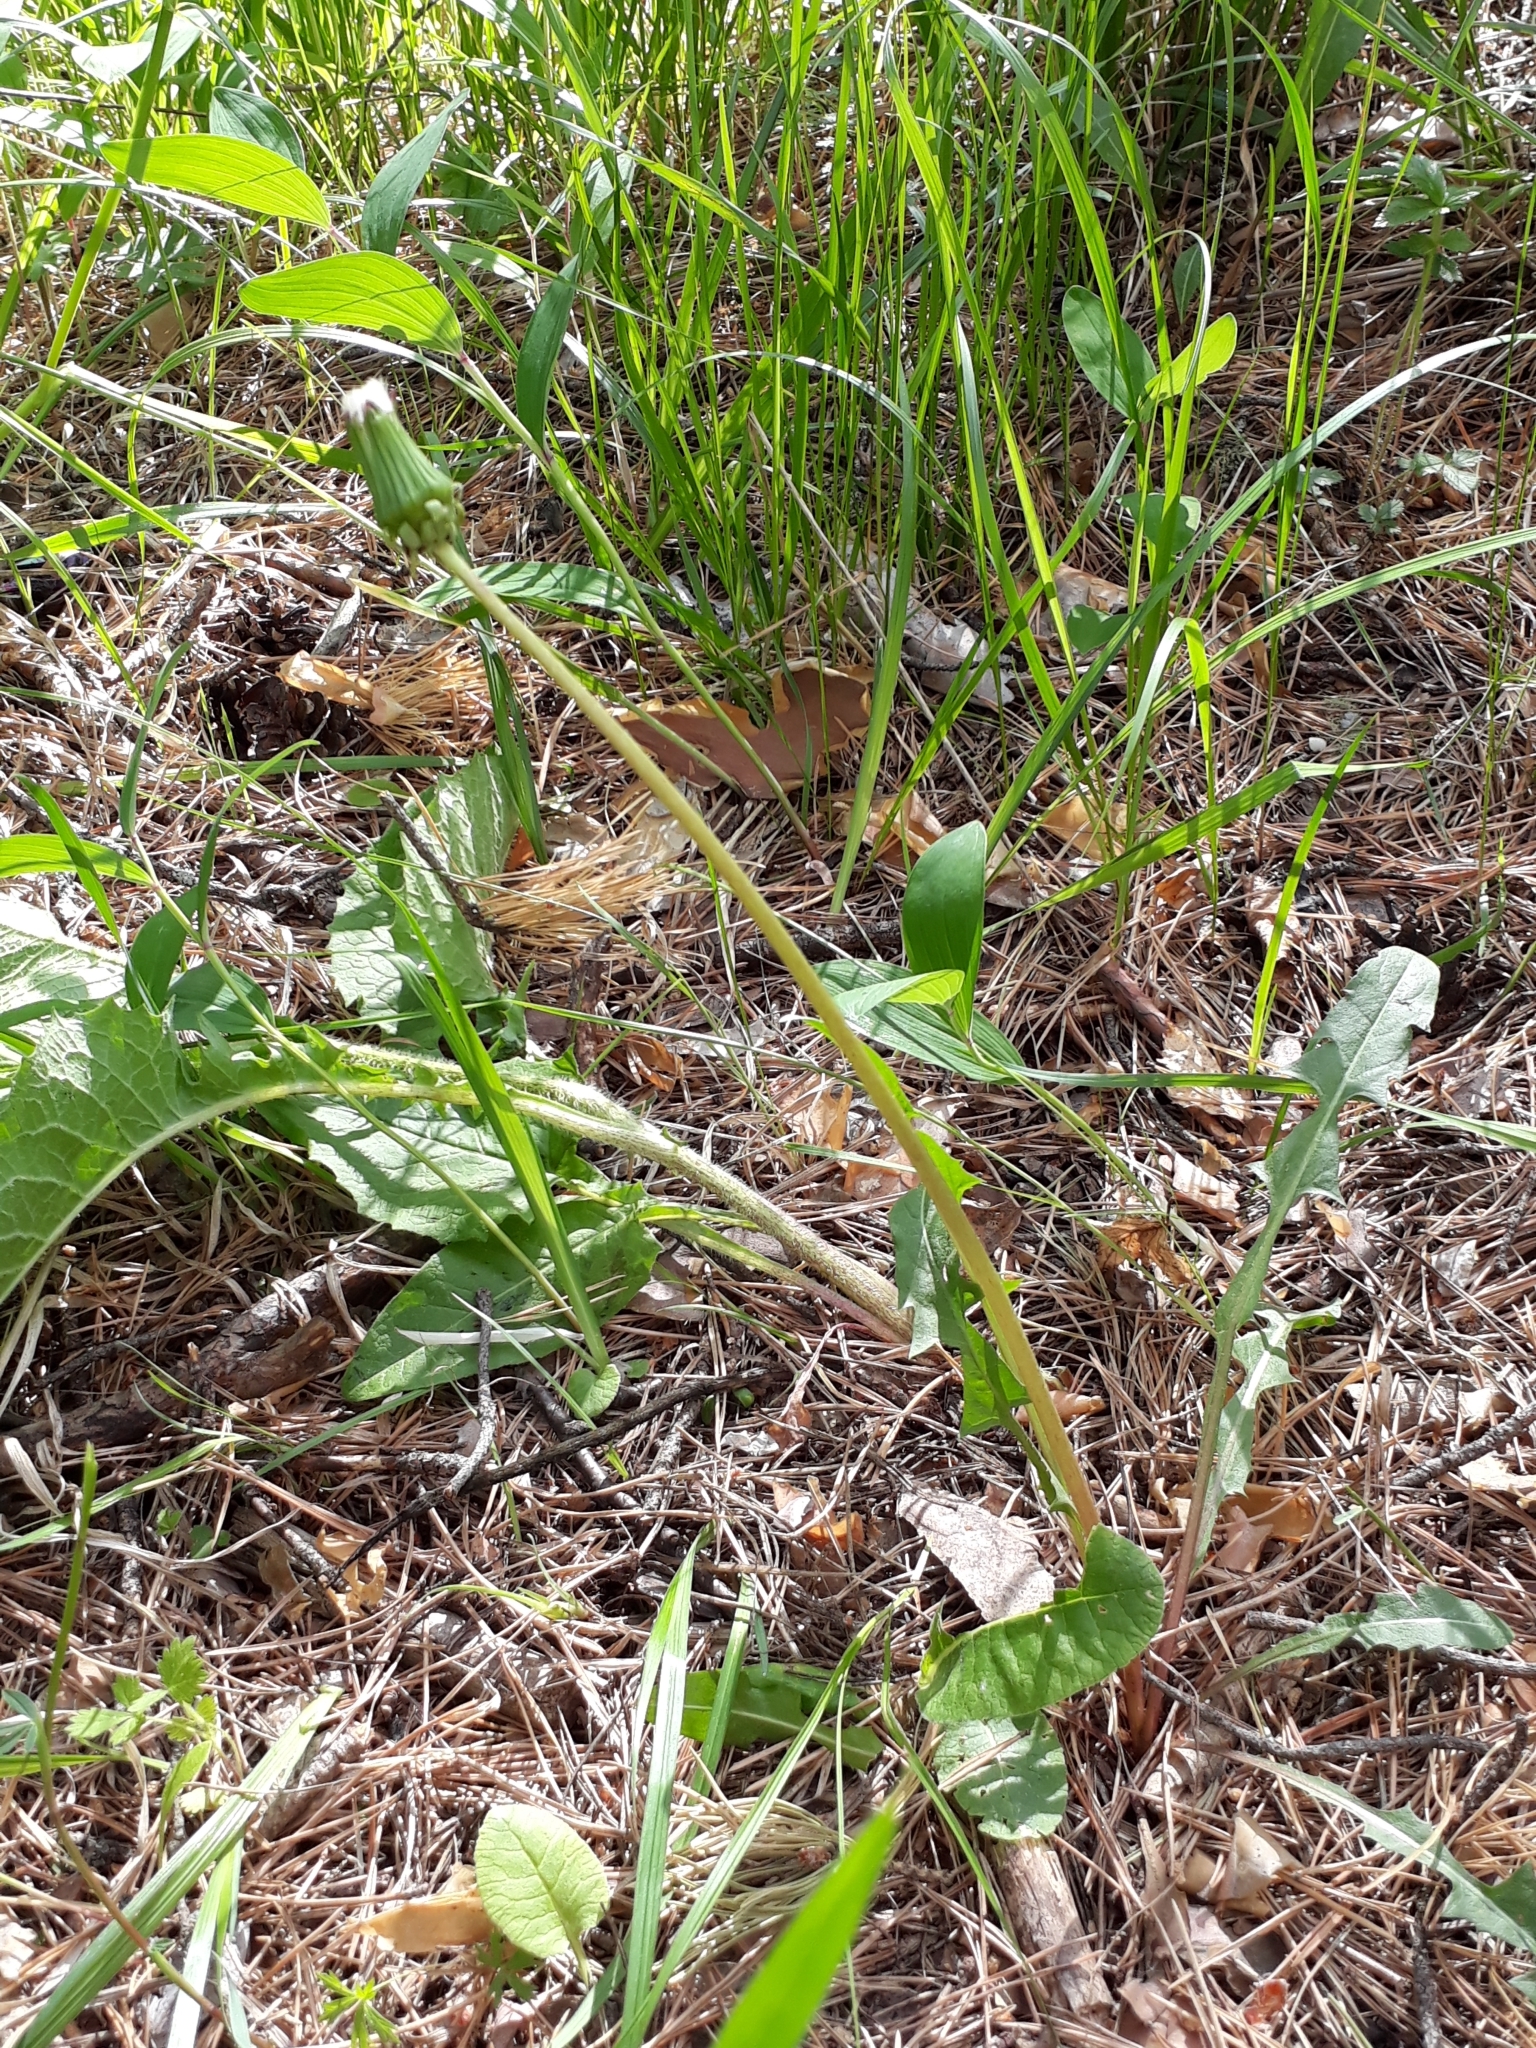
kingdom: Plantae
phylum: Tracheophyta
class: Magnoliopsida
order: Asterales
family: Asteraceae
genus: Taraxacum
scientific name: Taraxacum officinale
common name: Common dandelion
